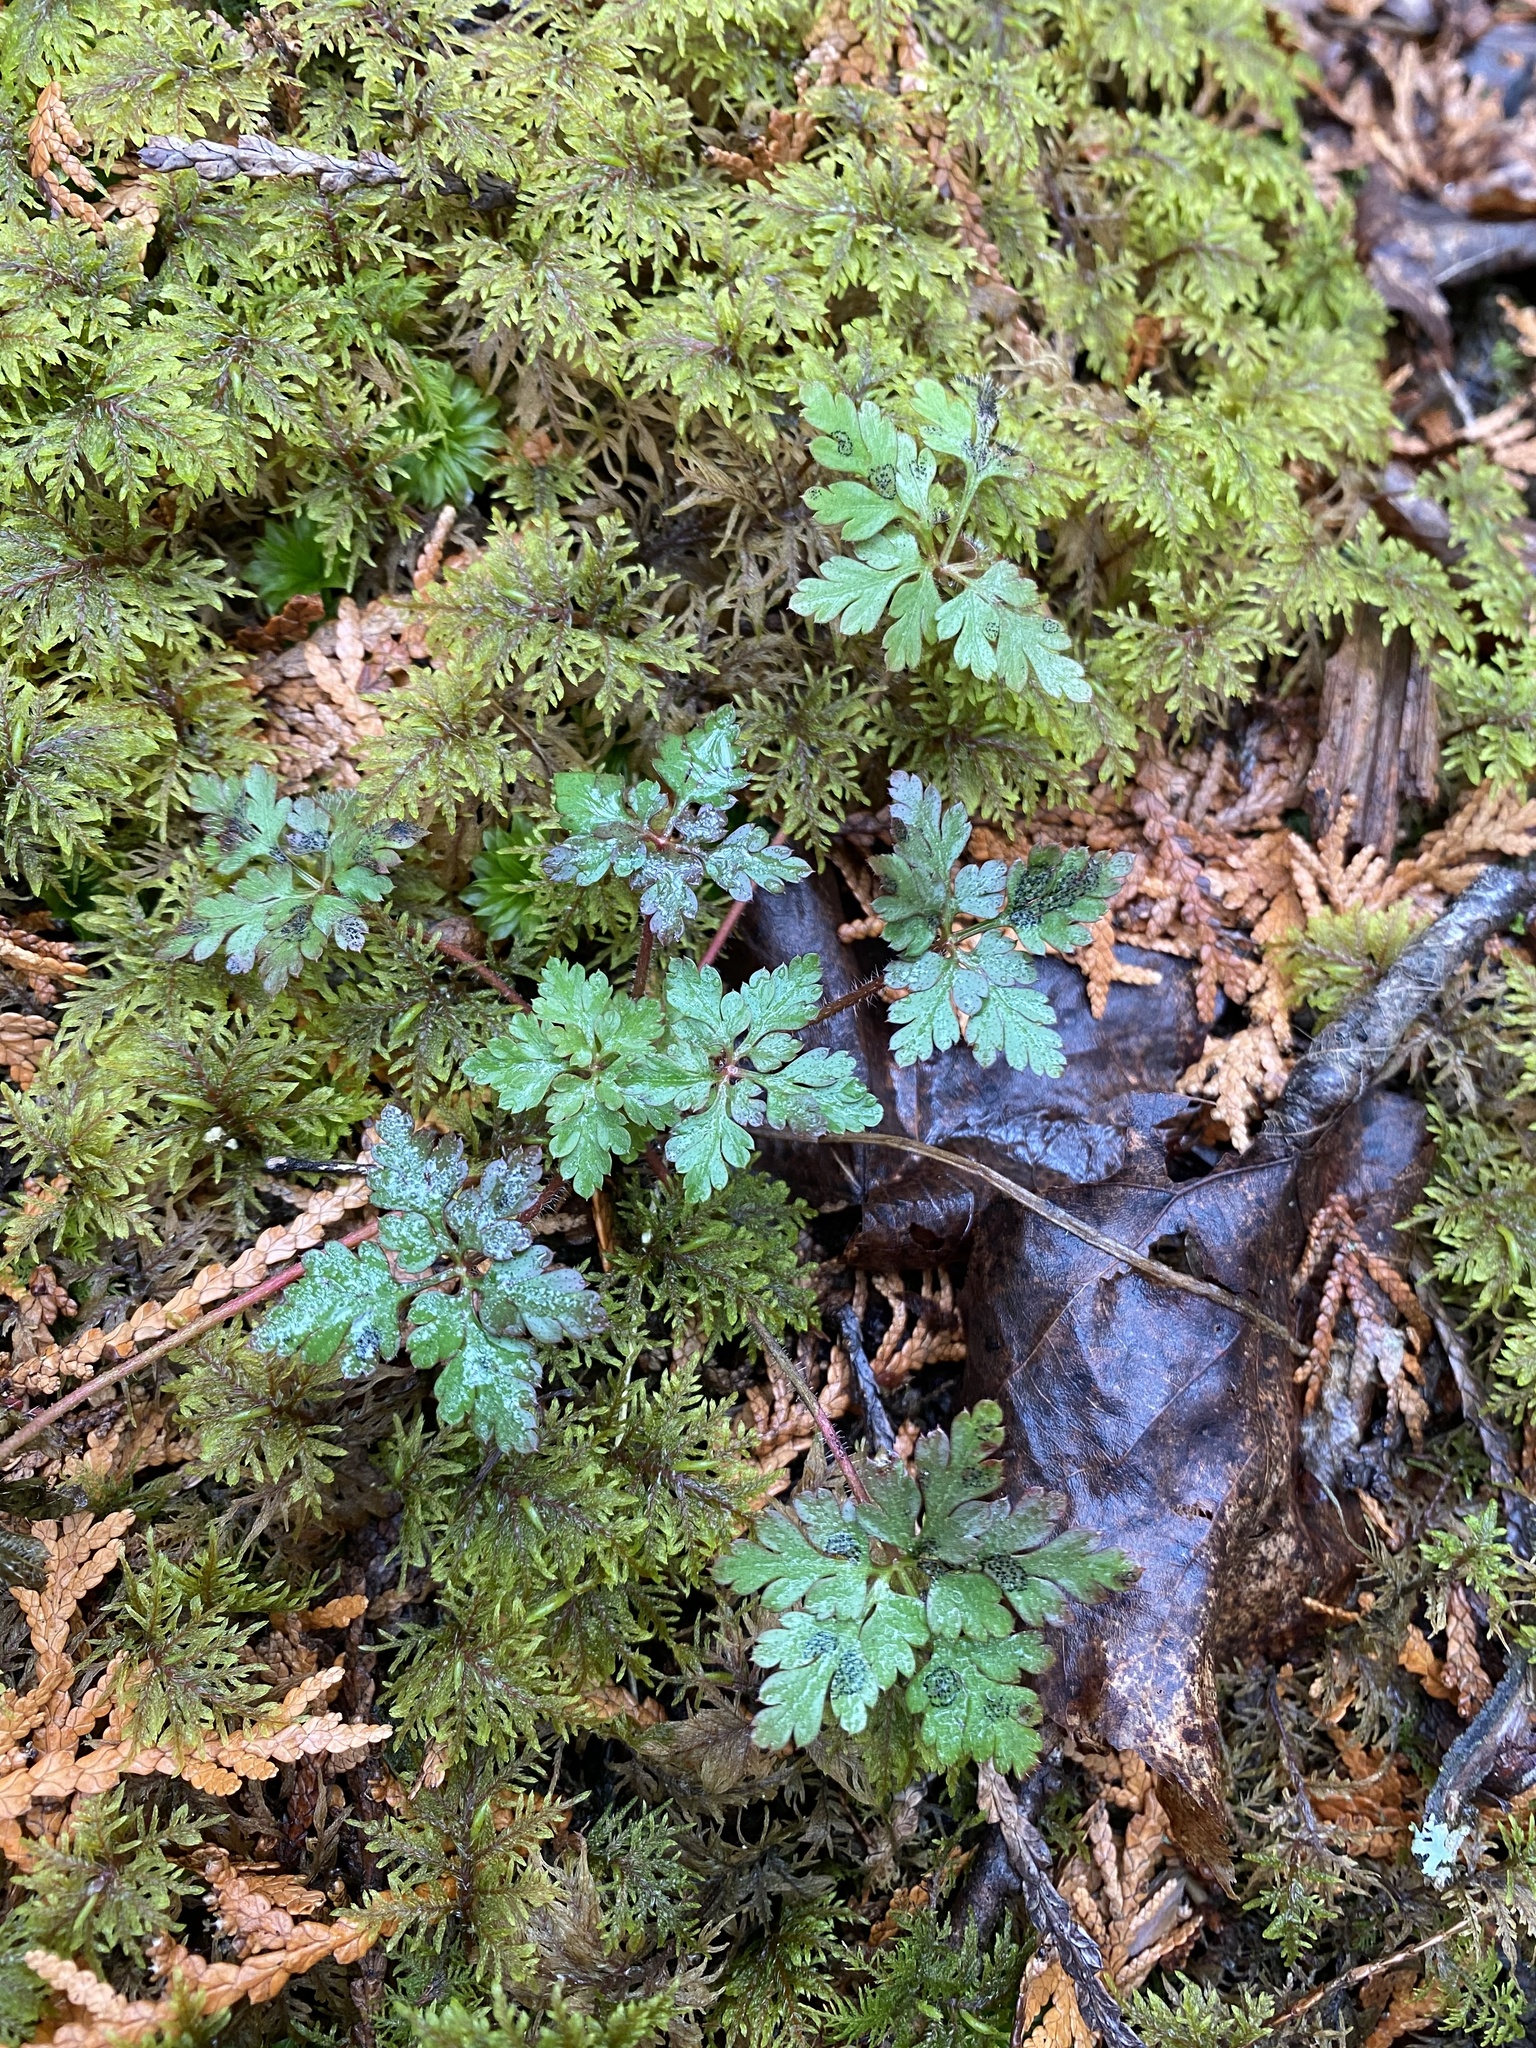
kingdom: Plantae
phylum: Tracheophyta
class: Magnoliopsida
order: Geraniales
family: Geraniaceae
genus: Geranium
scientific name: Geranium robertianum
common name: Herb-robert
